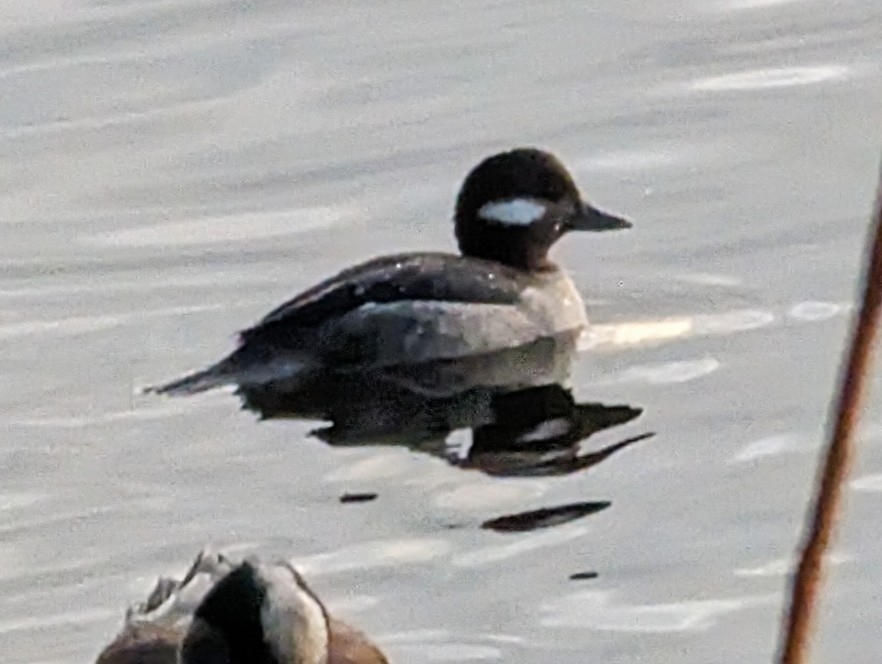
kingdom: Animalia
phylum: Chordata
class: Aves
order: Anseriformes
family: Anatidae
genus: Bucephala
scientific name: Bucephala albeola
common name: Bufflehead
